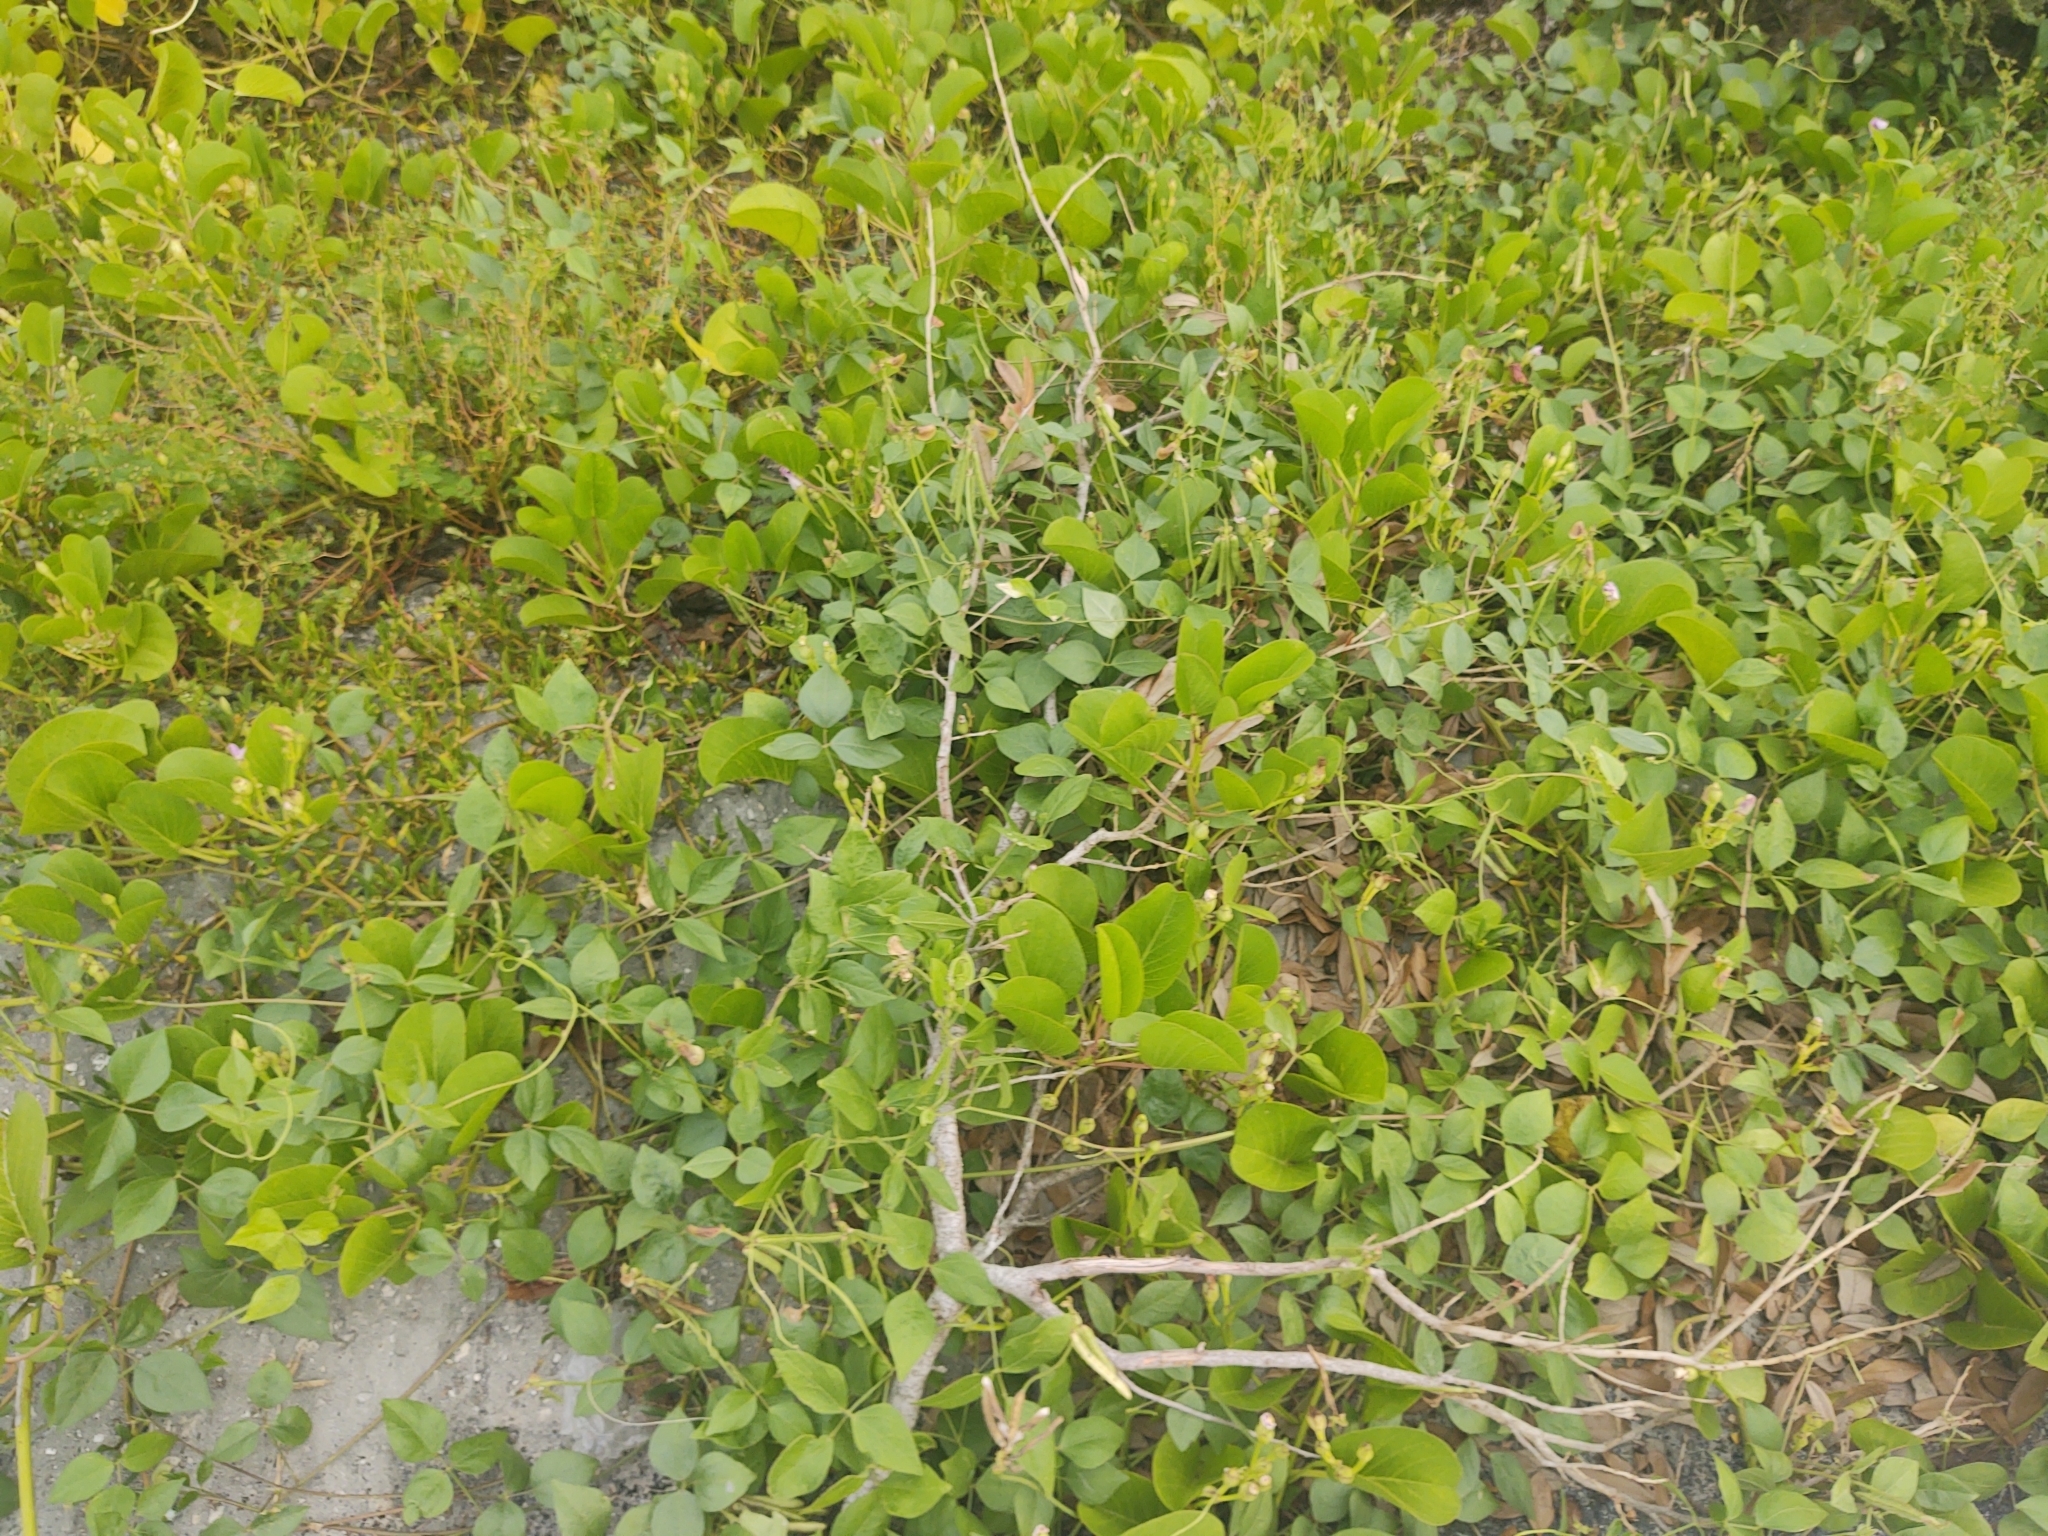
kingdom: Plantae
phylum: Tracheophyta
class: Magnoliopsida
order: Solanales
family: Convolvulaceae
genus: Ipomoea
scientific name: Ipomoea pes-caprae
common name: Beach morning glory
